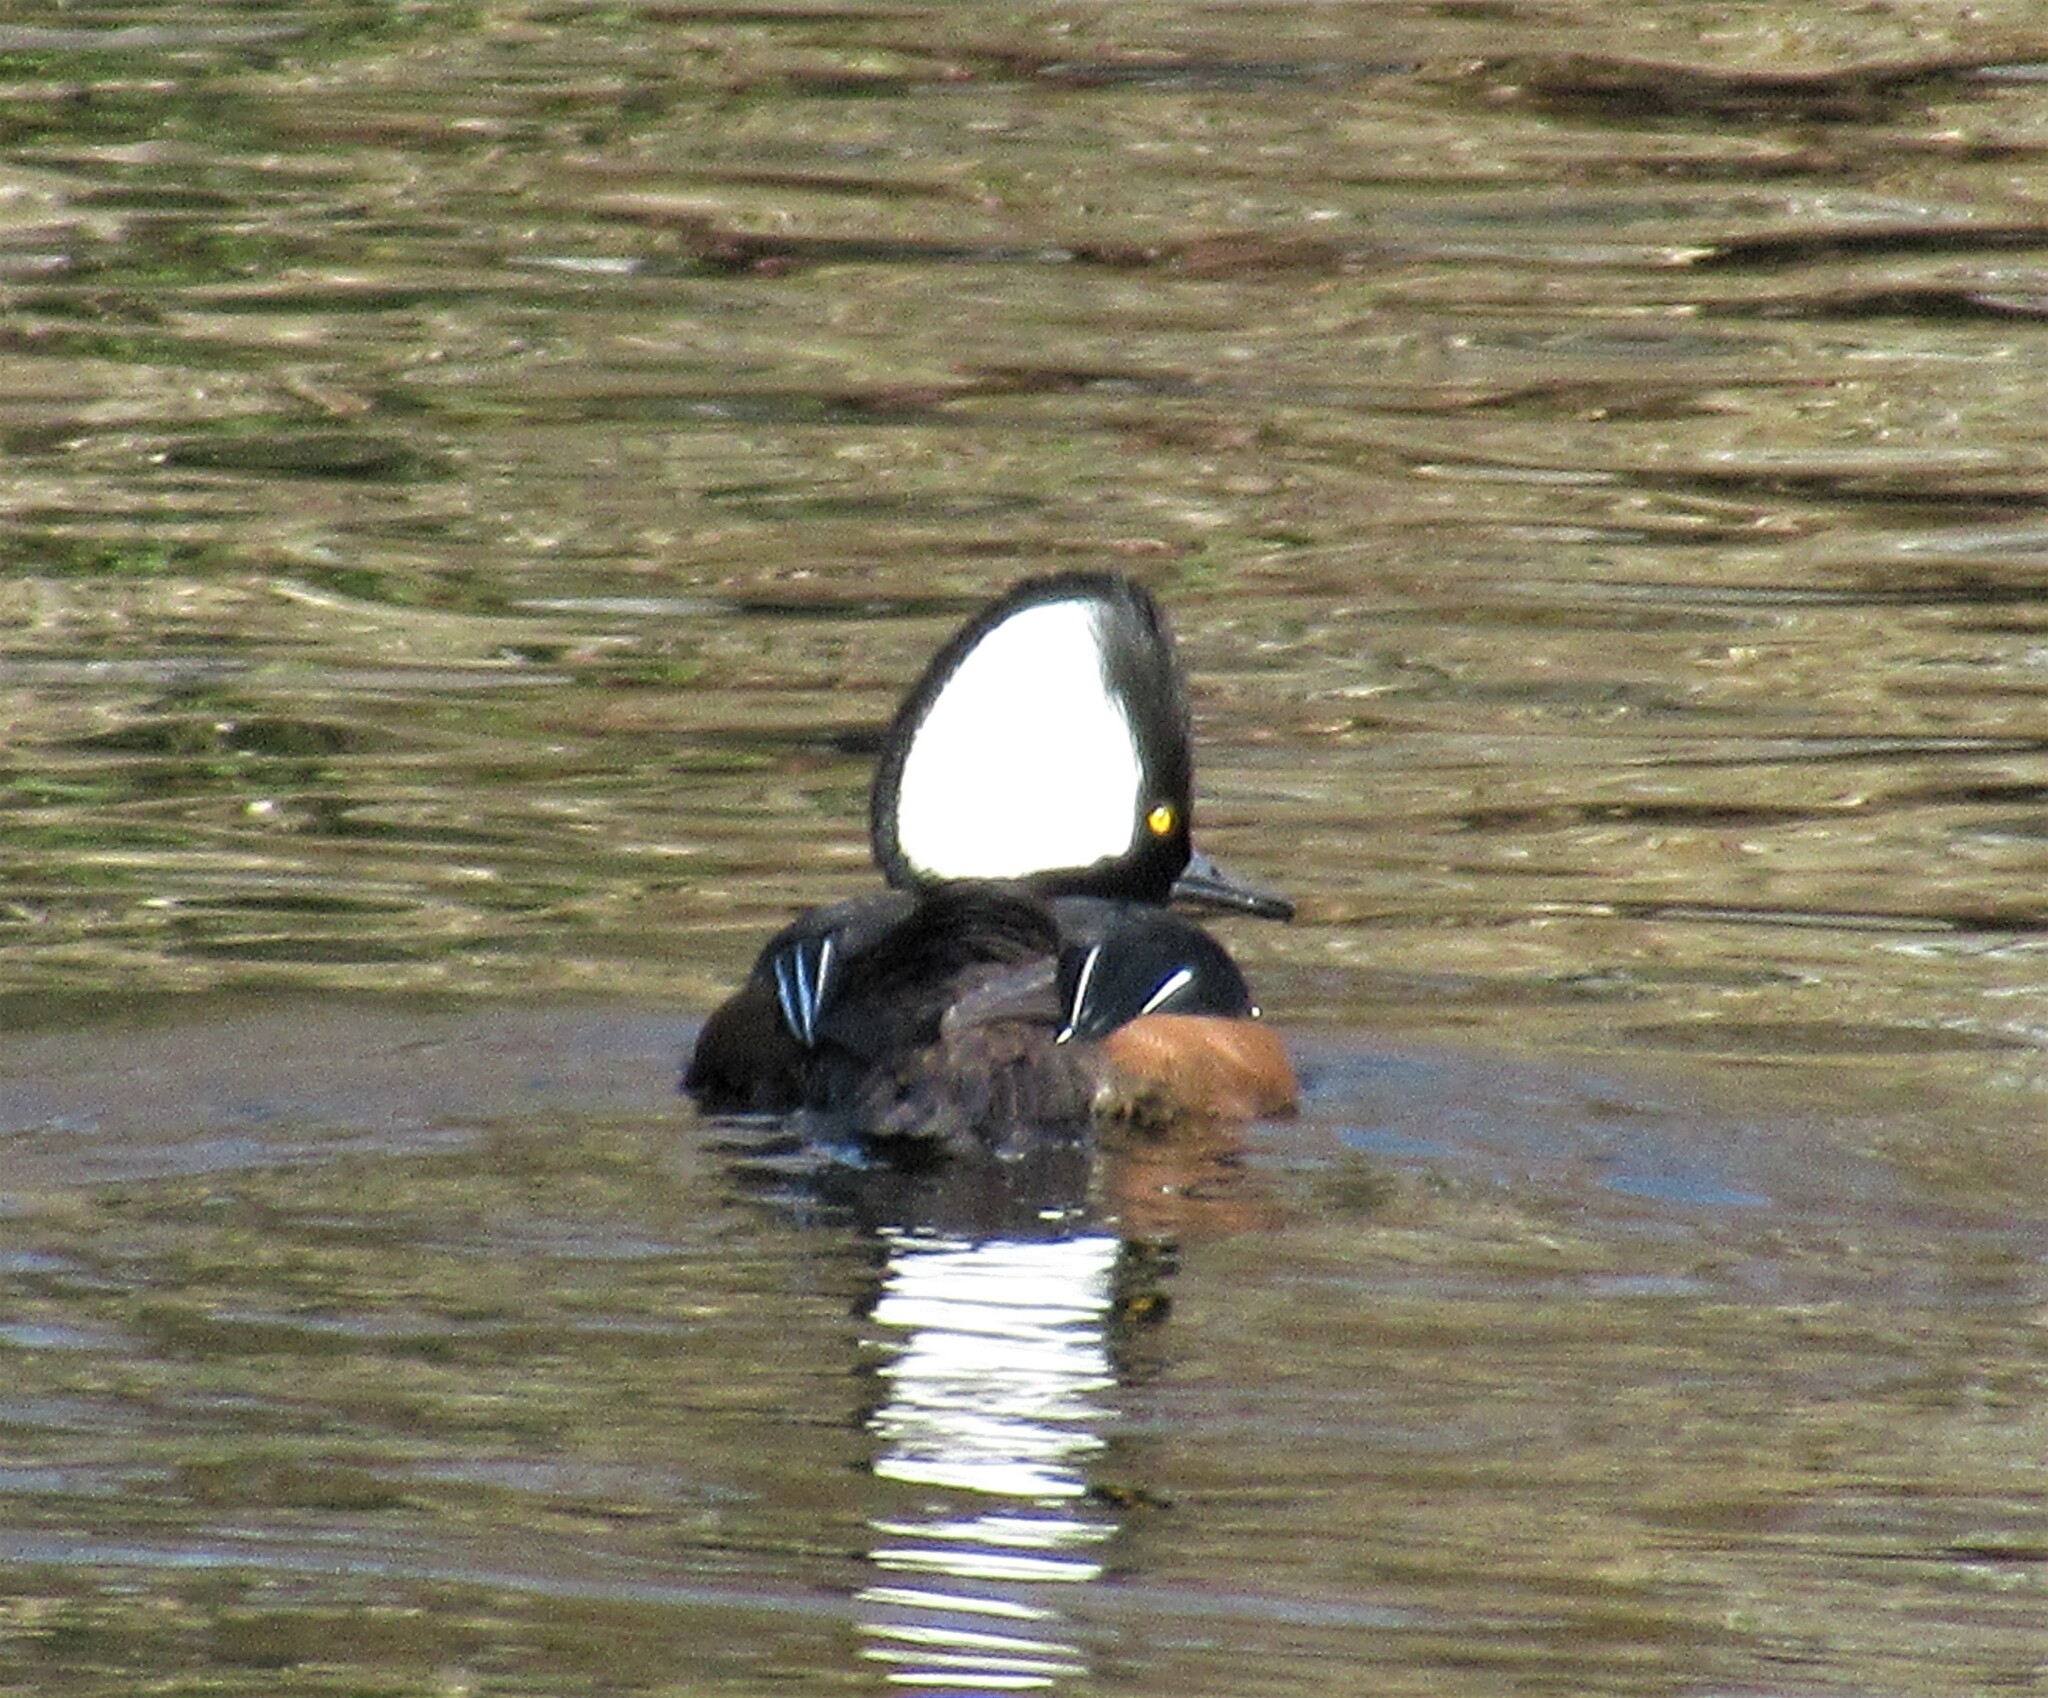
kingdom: Animalia
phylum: Chordata
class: Aves
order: Anseriformes
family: Anatidae
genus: Lophodytes
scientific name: Lophodytes cucullatus
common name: Hooded merganser
